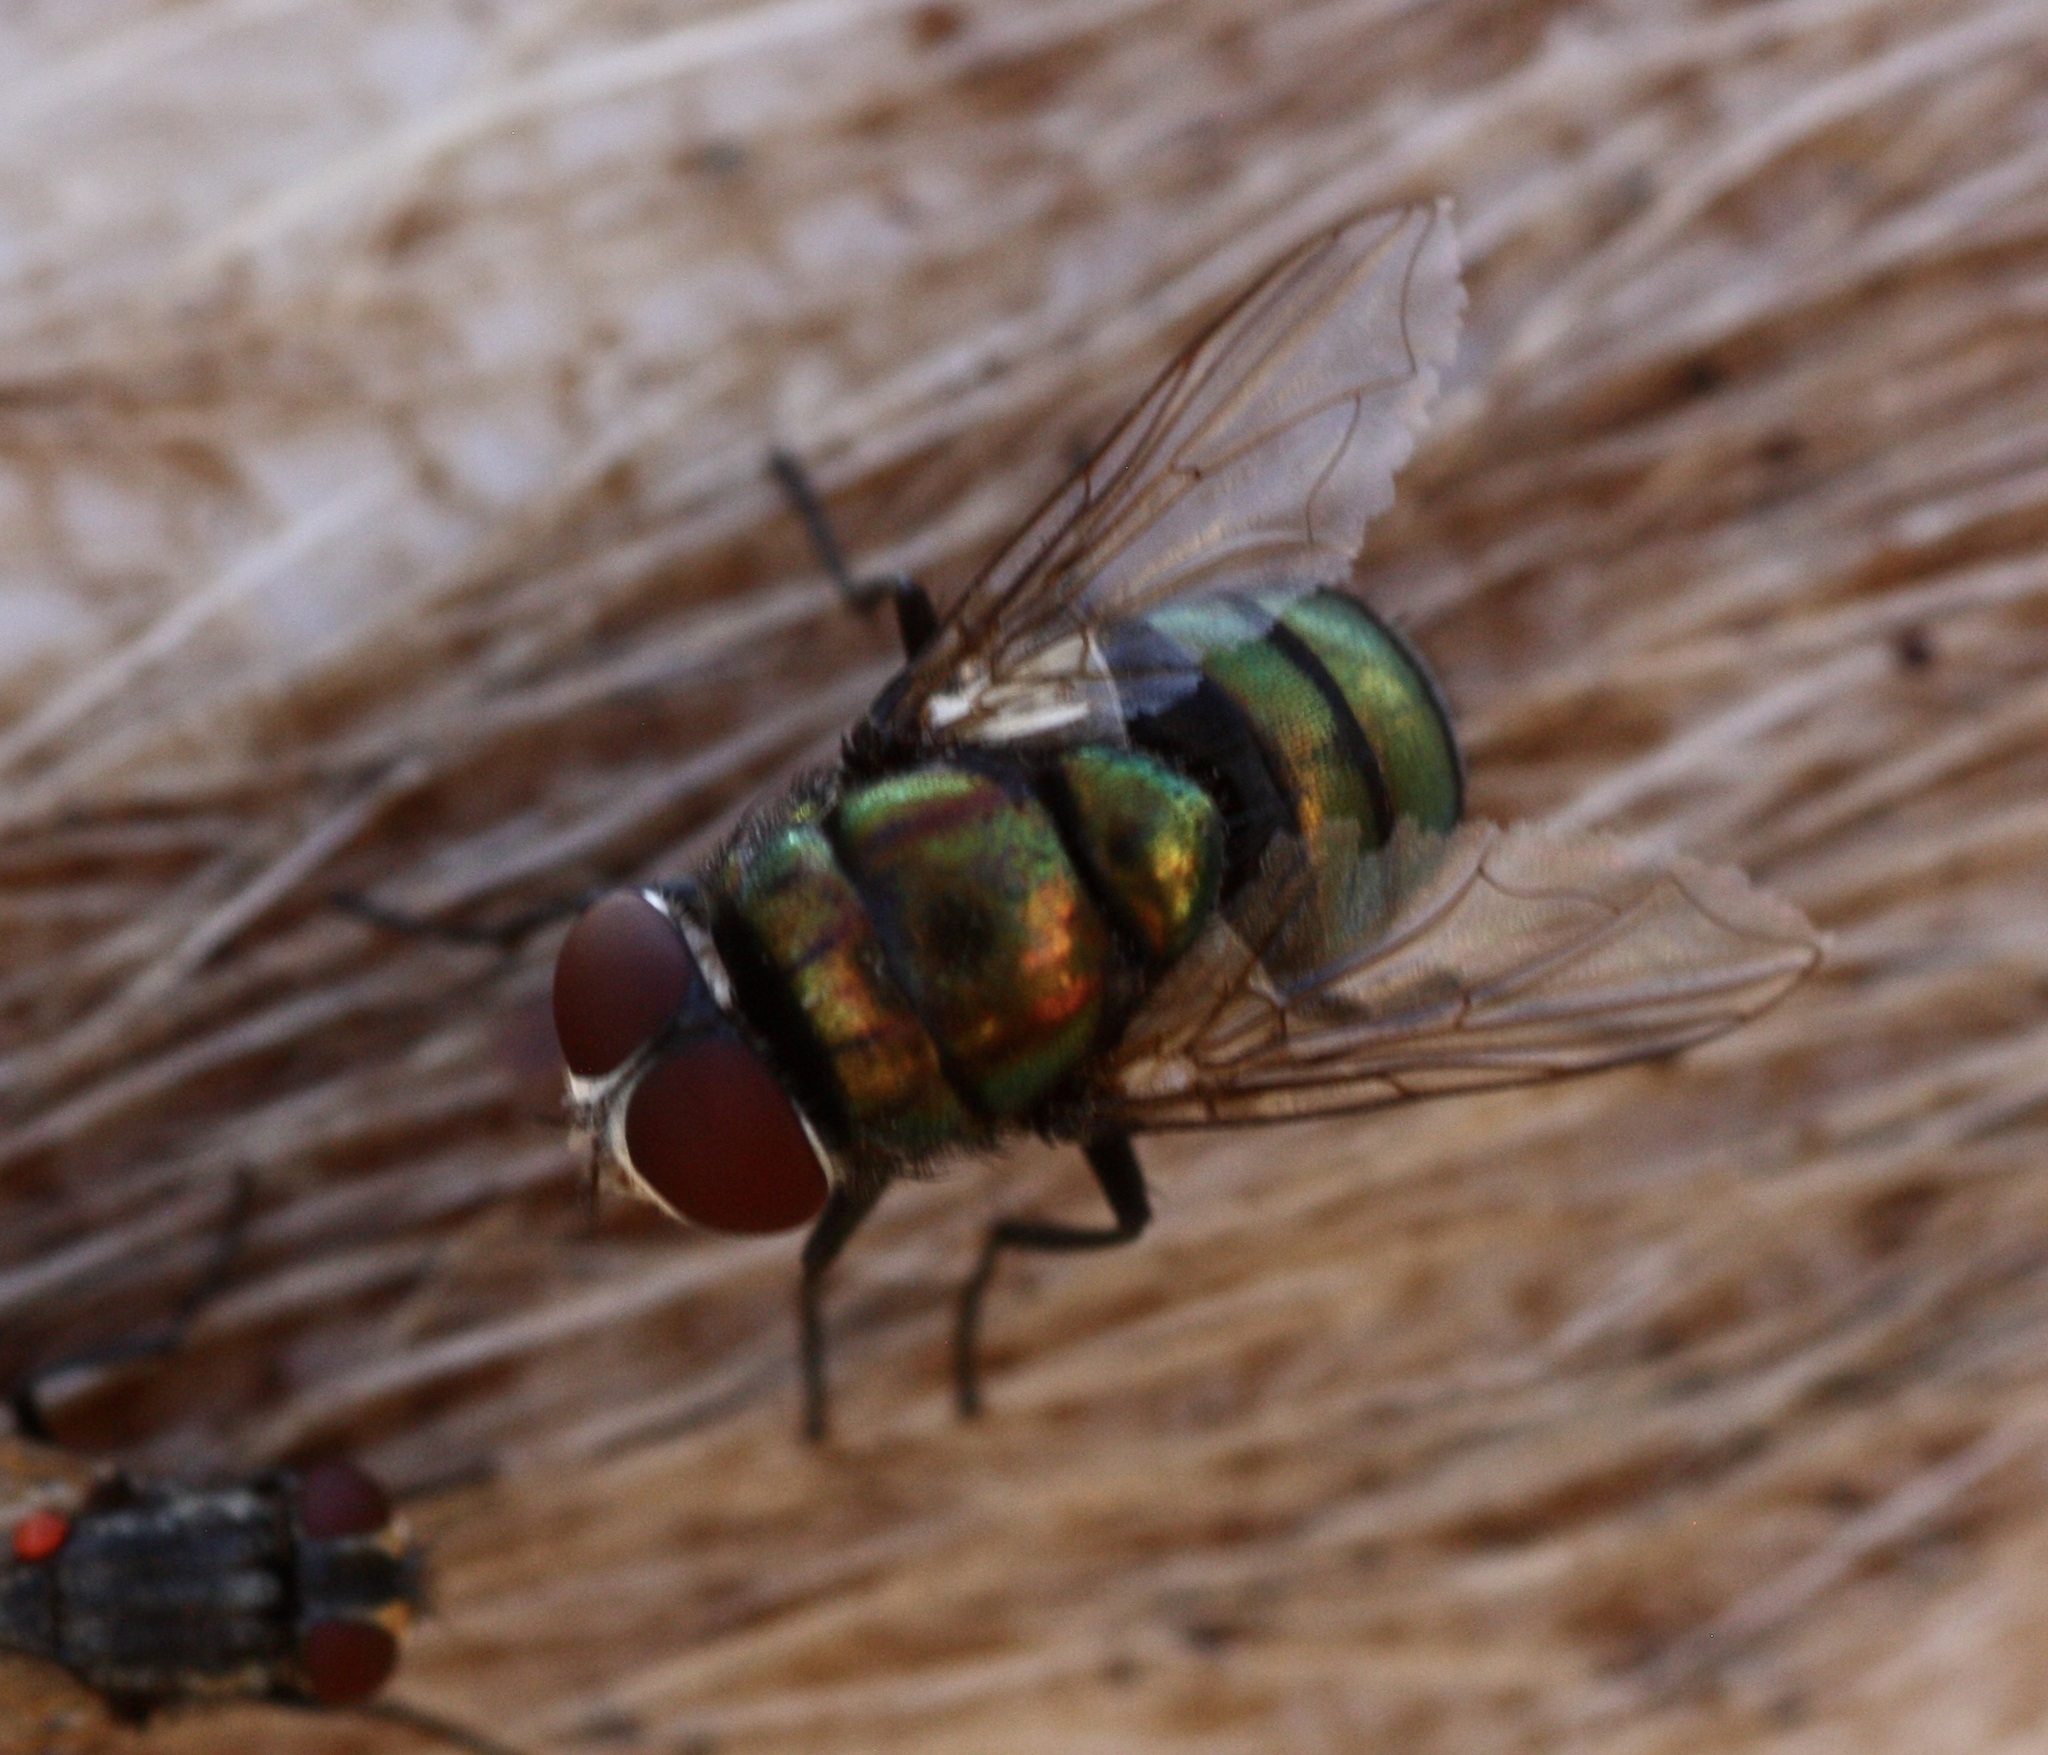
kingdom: Animalia
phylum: Arthropoda
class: Insecta
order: Diptera
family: Calliphoridae
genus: Chrysomya
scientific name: Chrysomya rufifacies
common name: Blow fly
